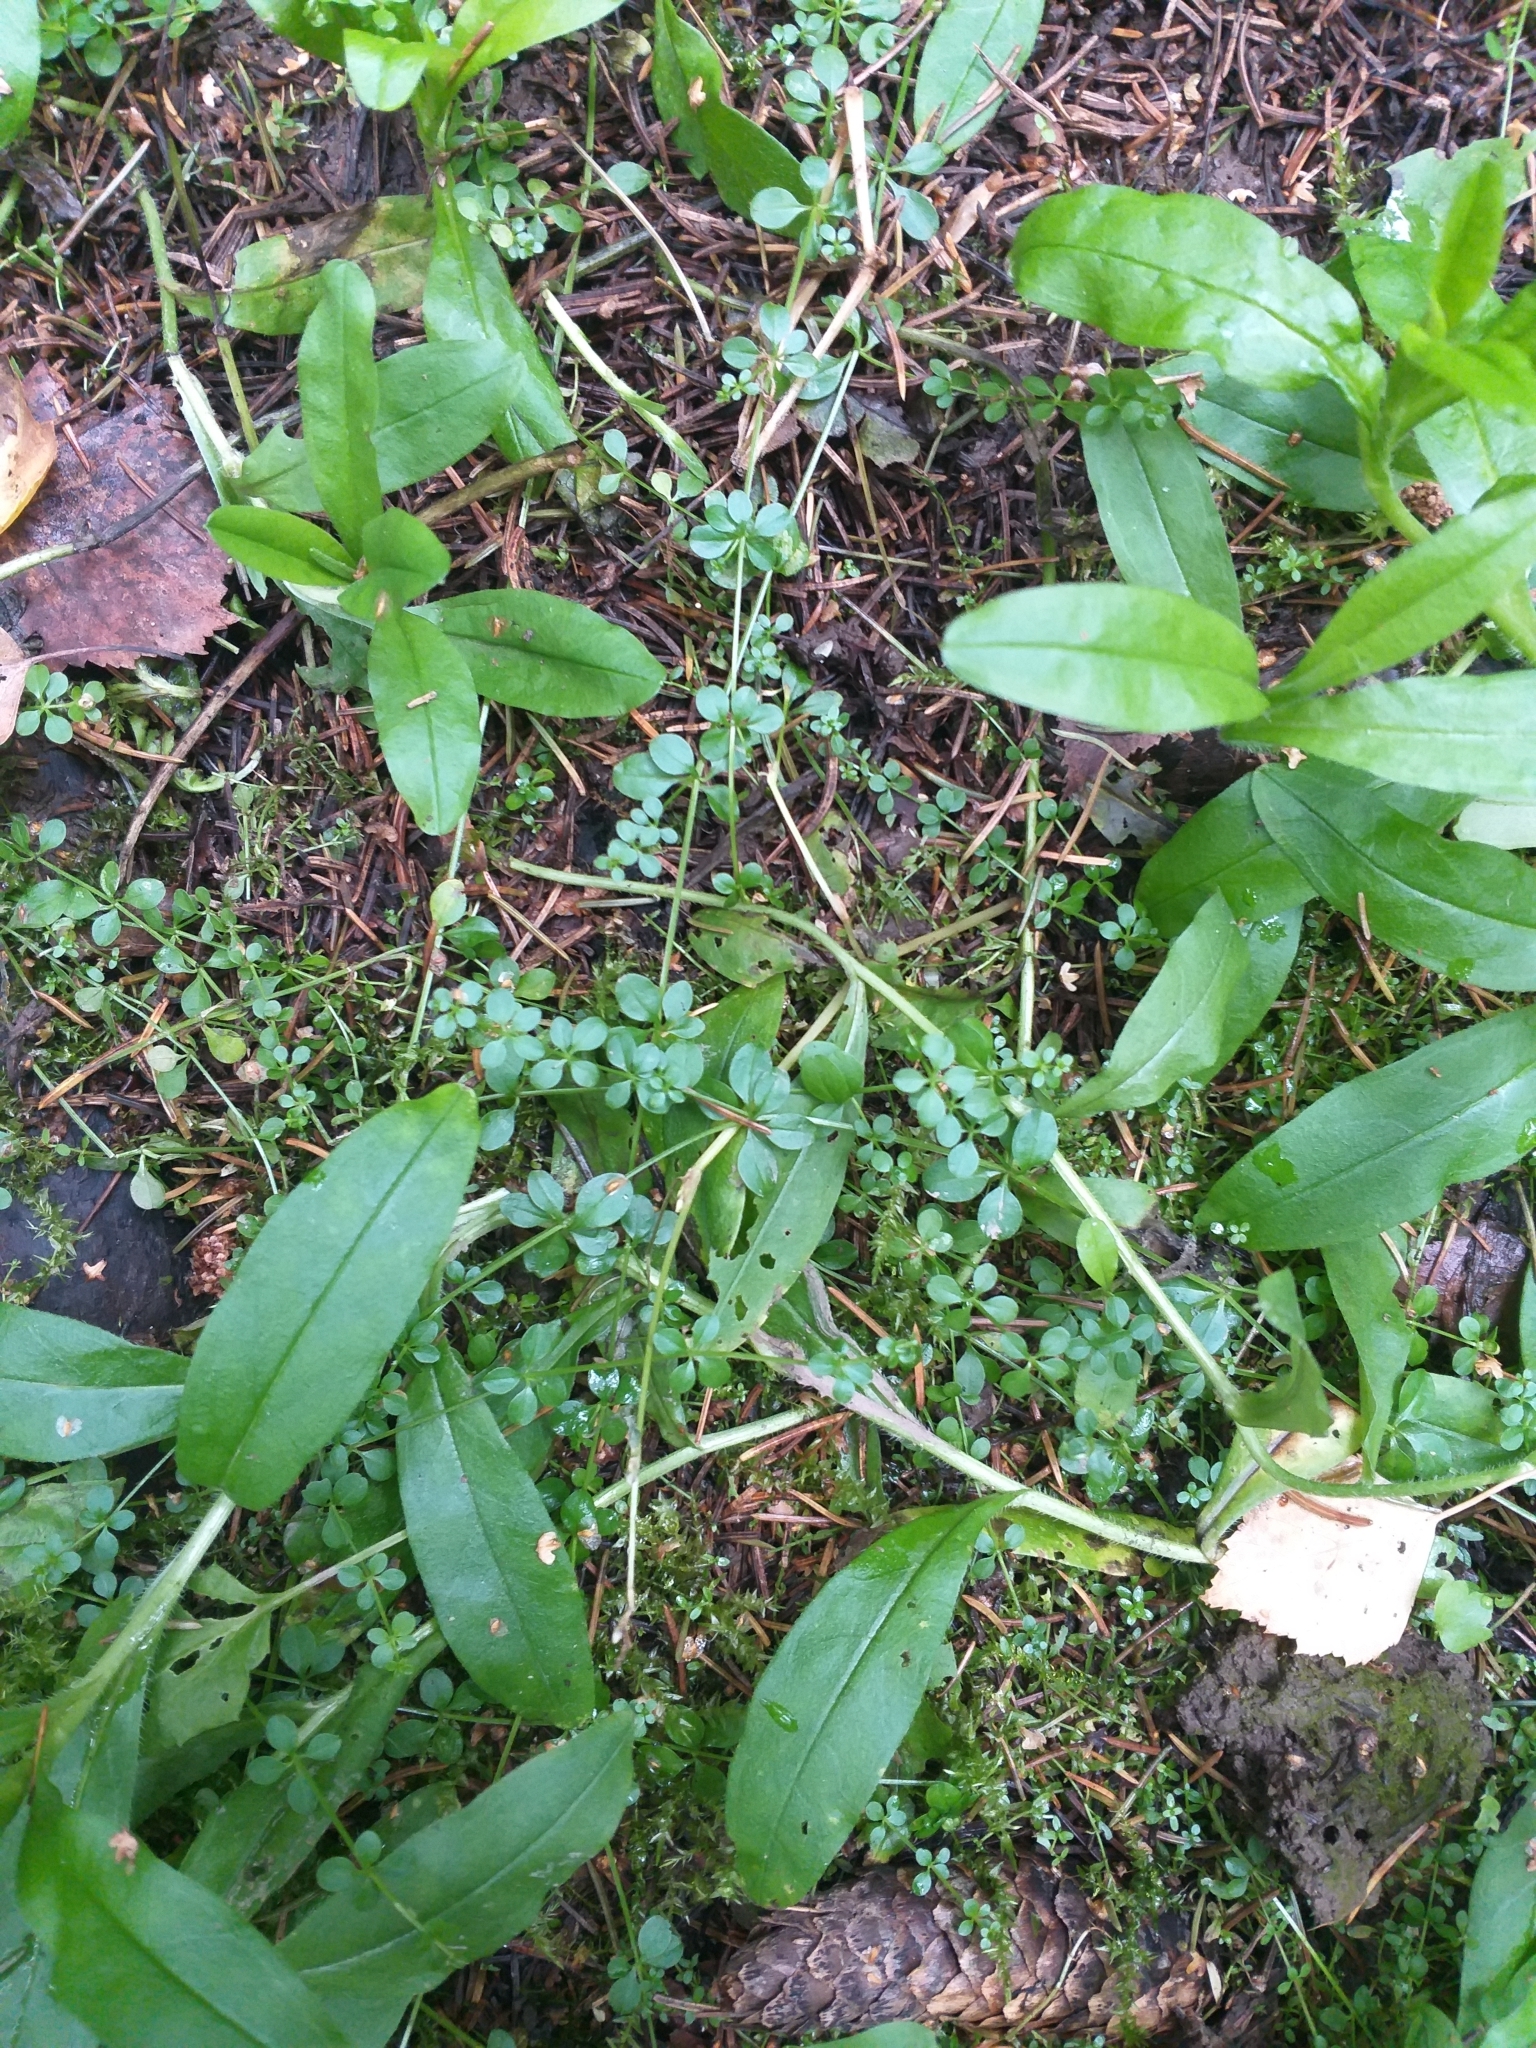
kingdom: Plantae
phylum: Tracheophyta
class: Magnoliopsida
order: Gentianales
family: Rubiaceae
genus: Galium
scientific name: Galium palustre
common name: Common marsh-bedstraw
